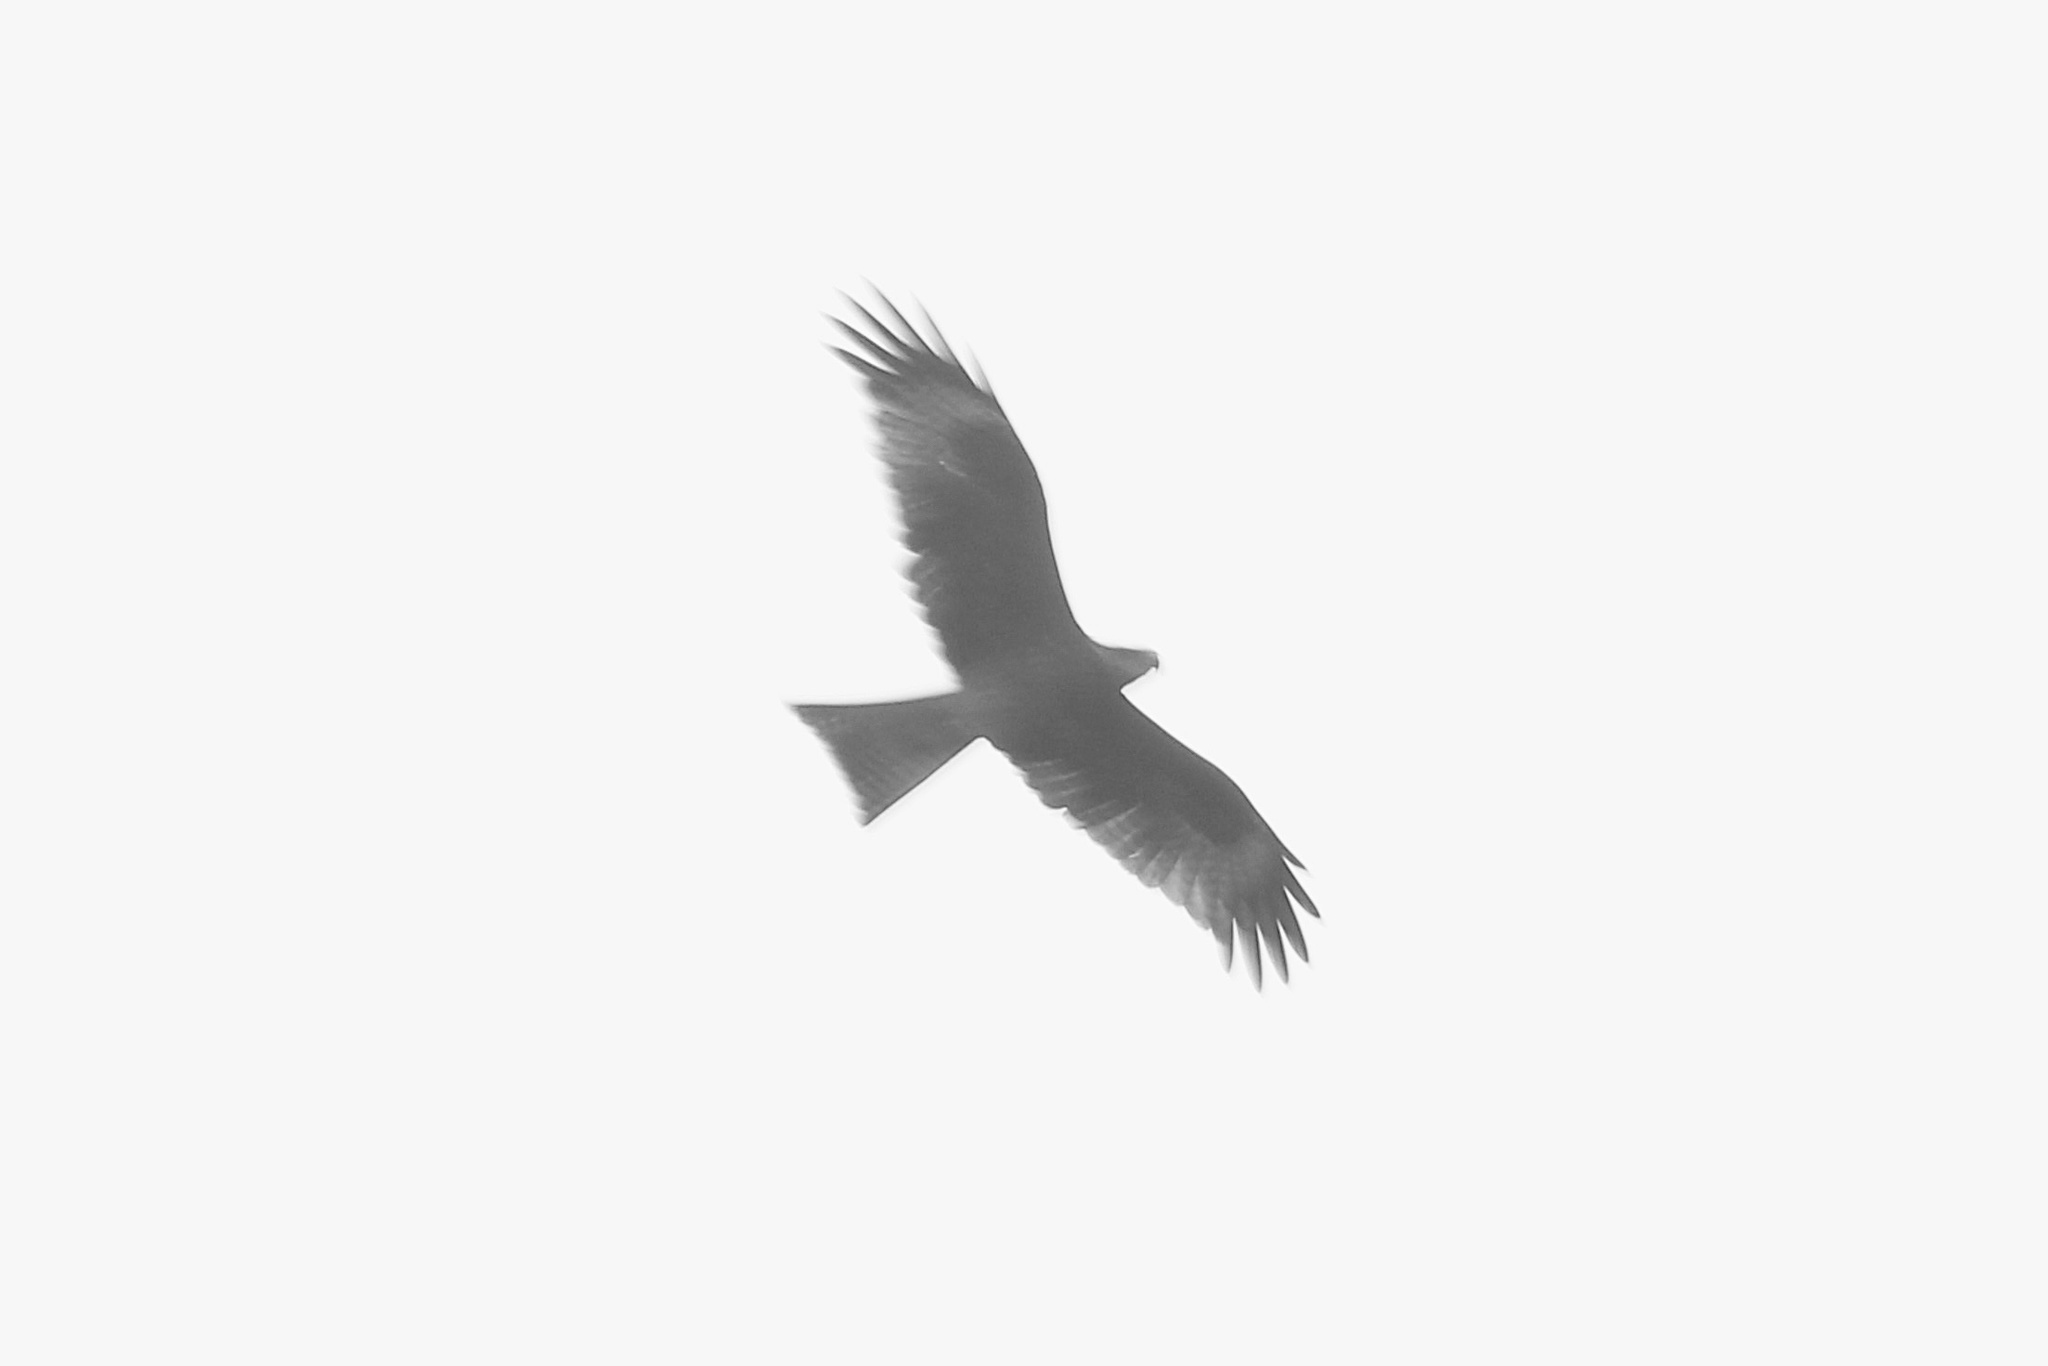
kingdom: Animalia
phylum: Chordata
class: Aves
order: Accipitriformes
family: Accipitridae
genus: Milvus
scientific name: Milvus migrans
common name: Black kite
